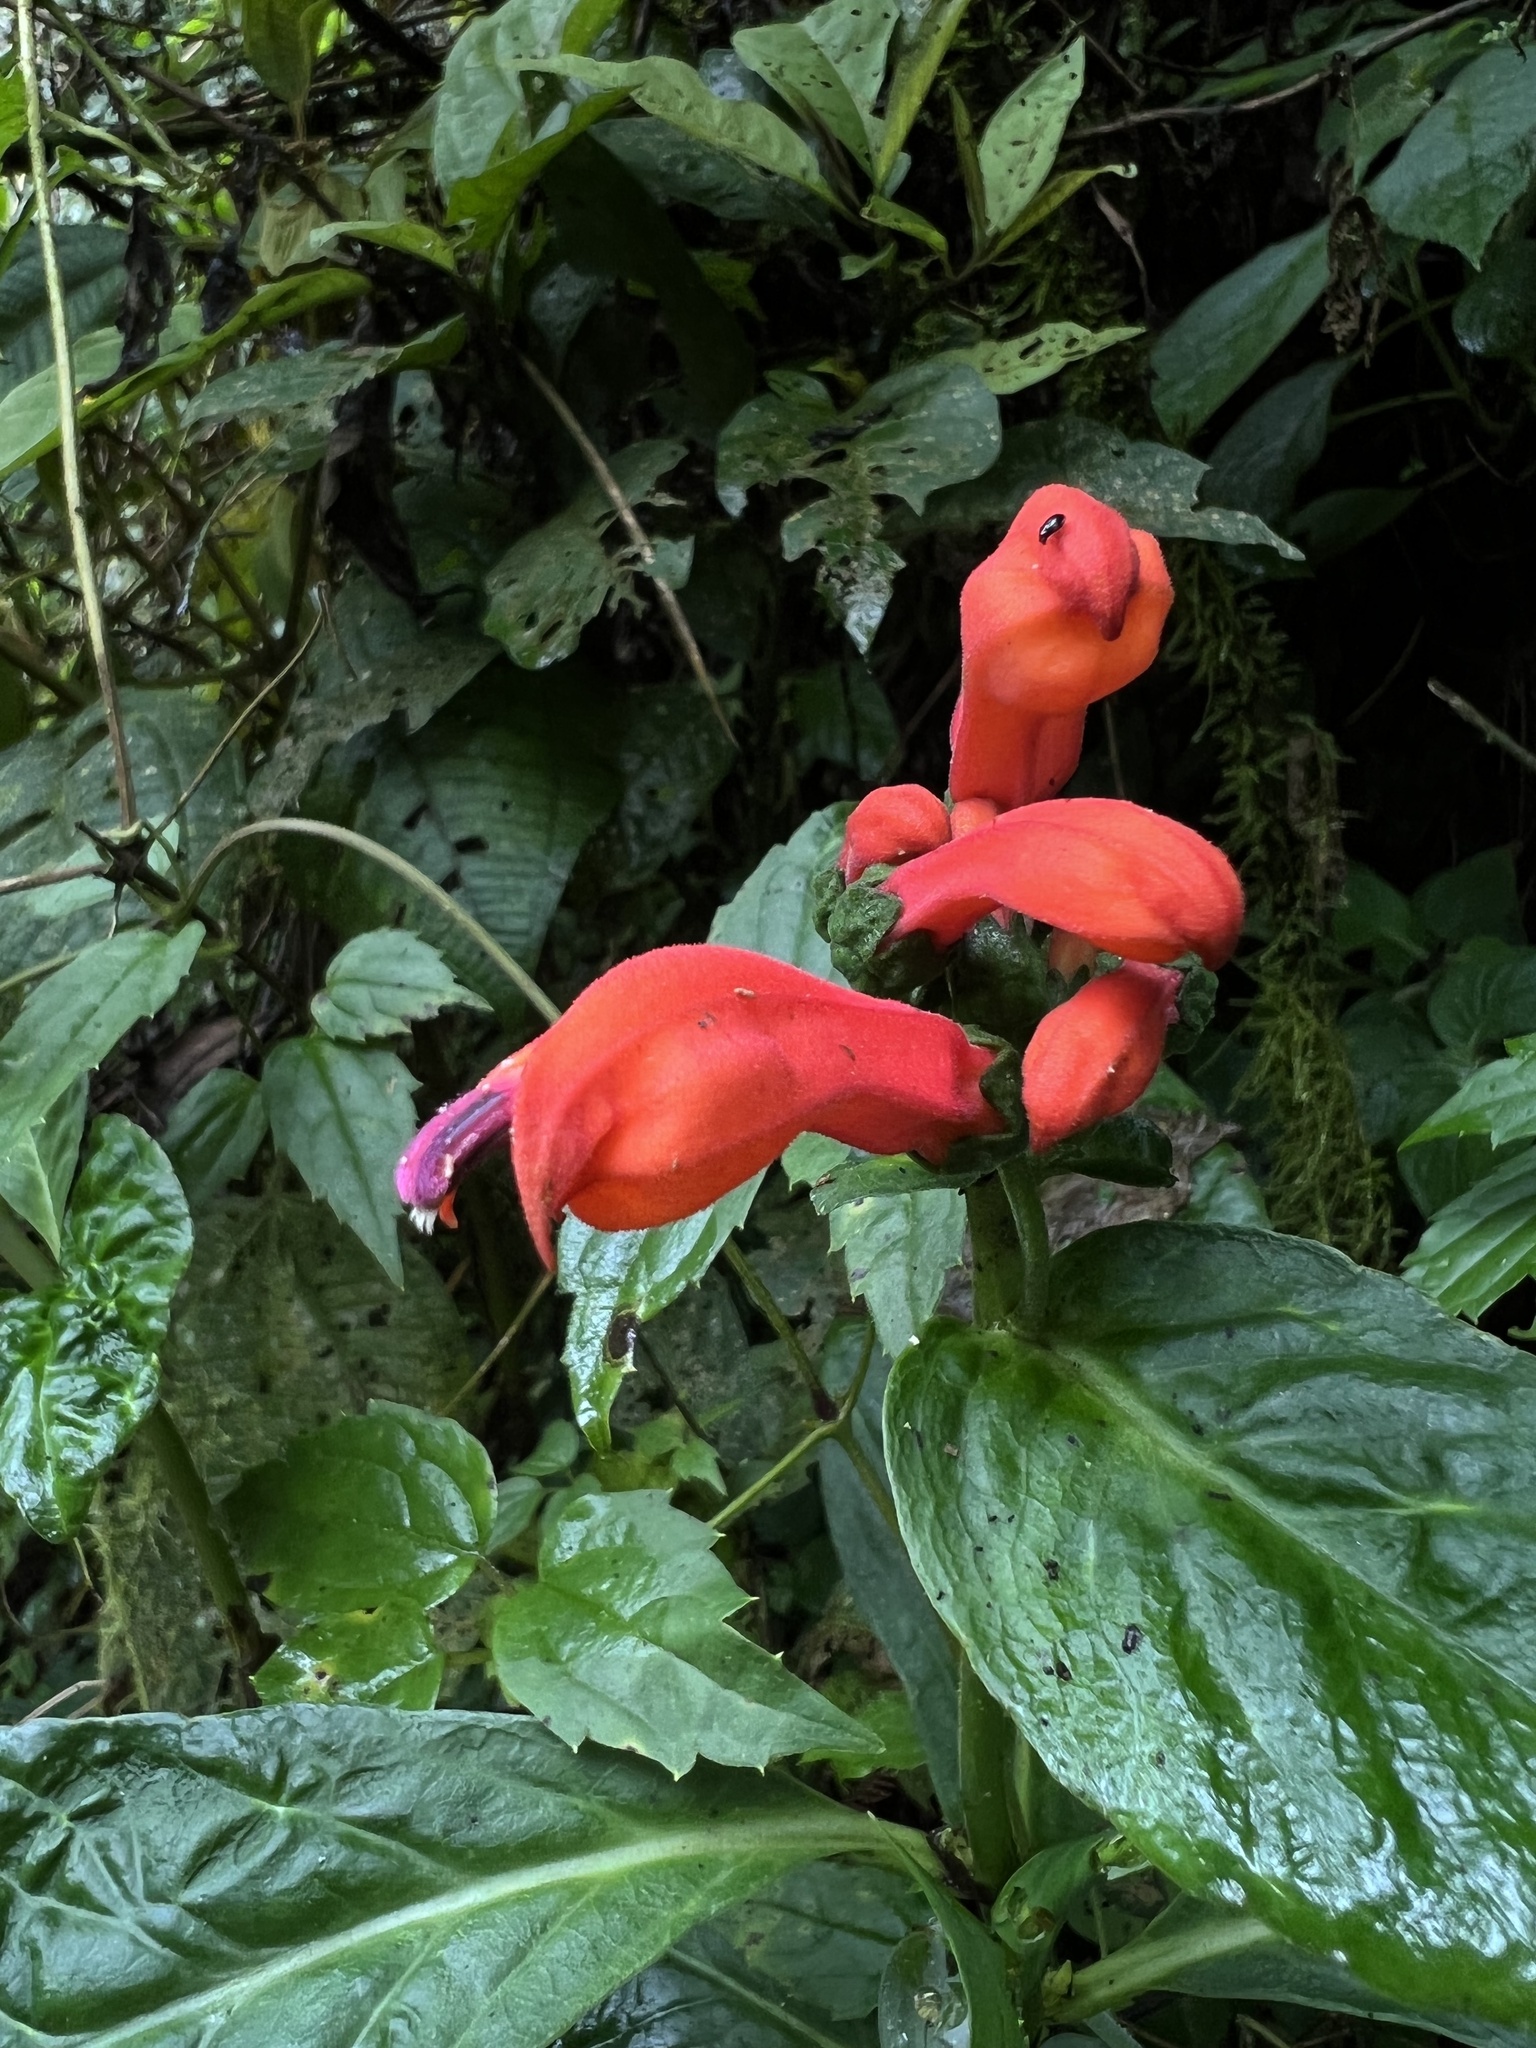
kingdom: Plantae
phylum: Tracheophyta
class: Magnoliopsida
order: Asterales
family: Campanulaceae
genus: Centropogon
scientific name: Centropogon vaughianus
